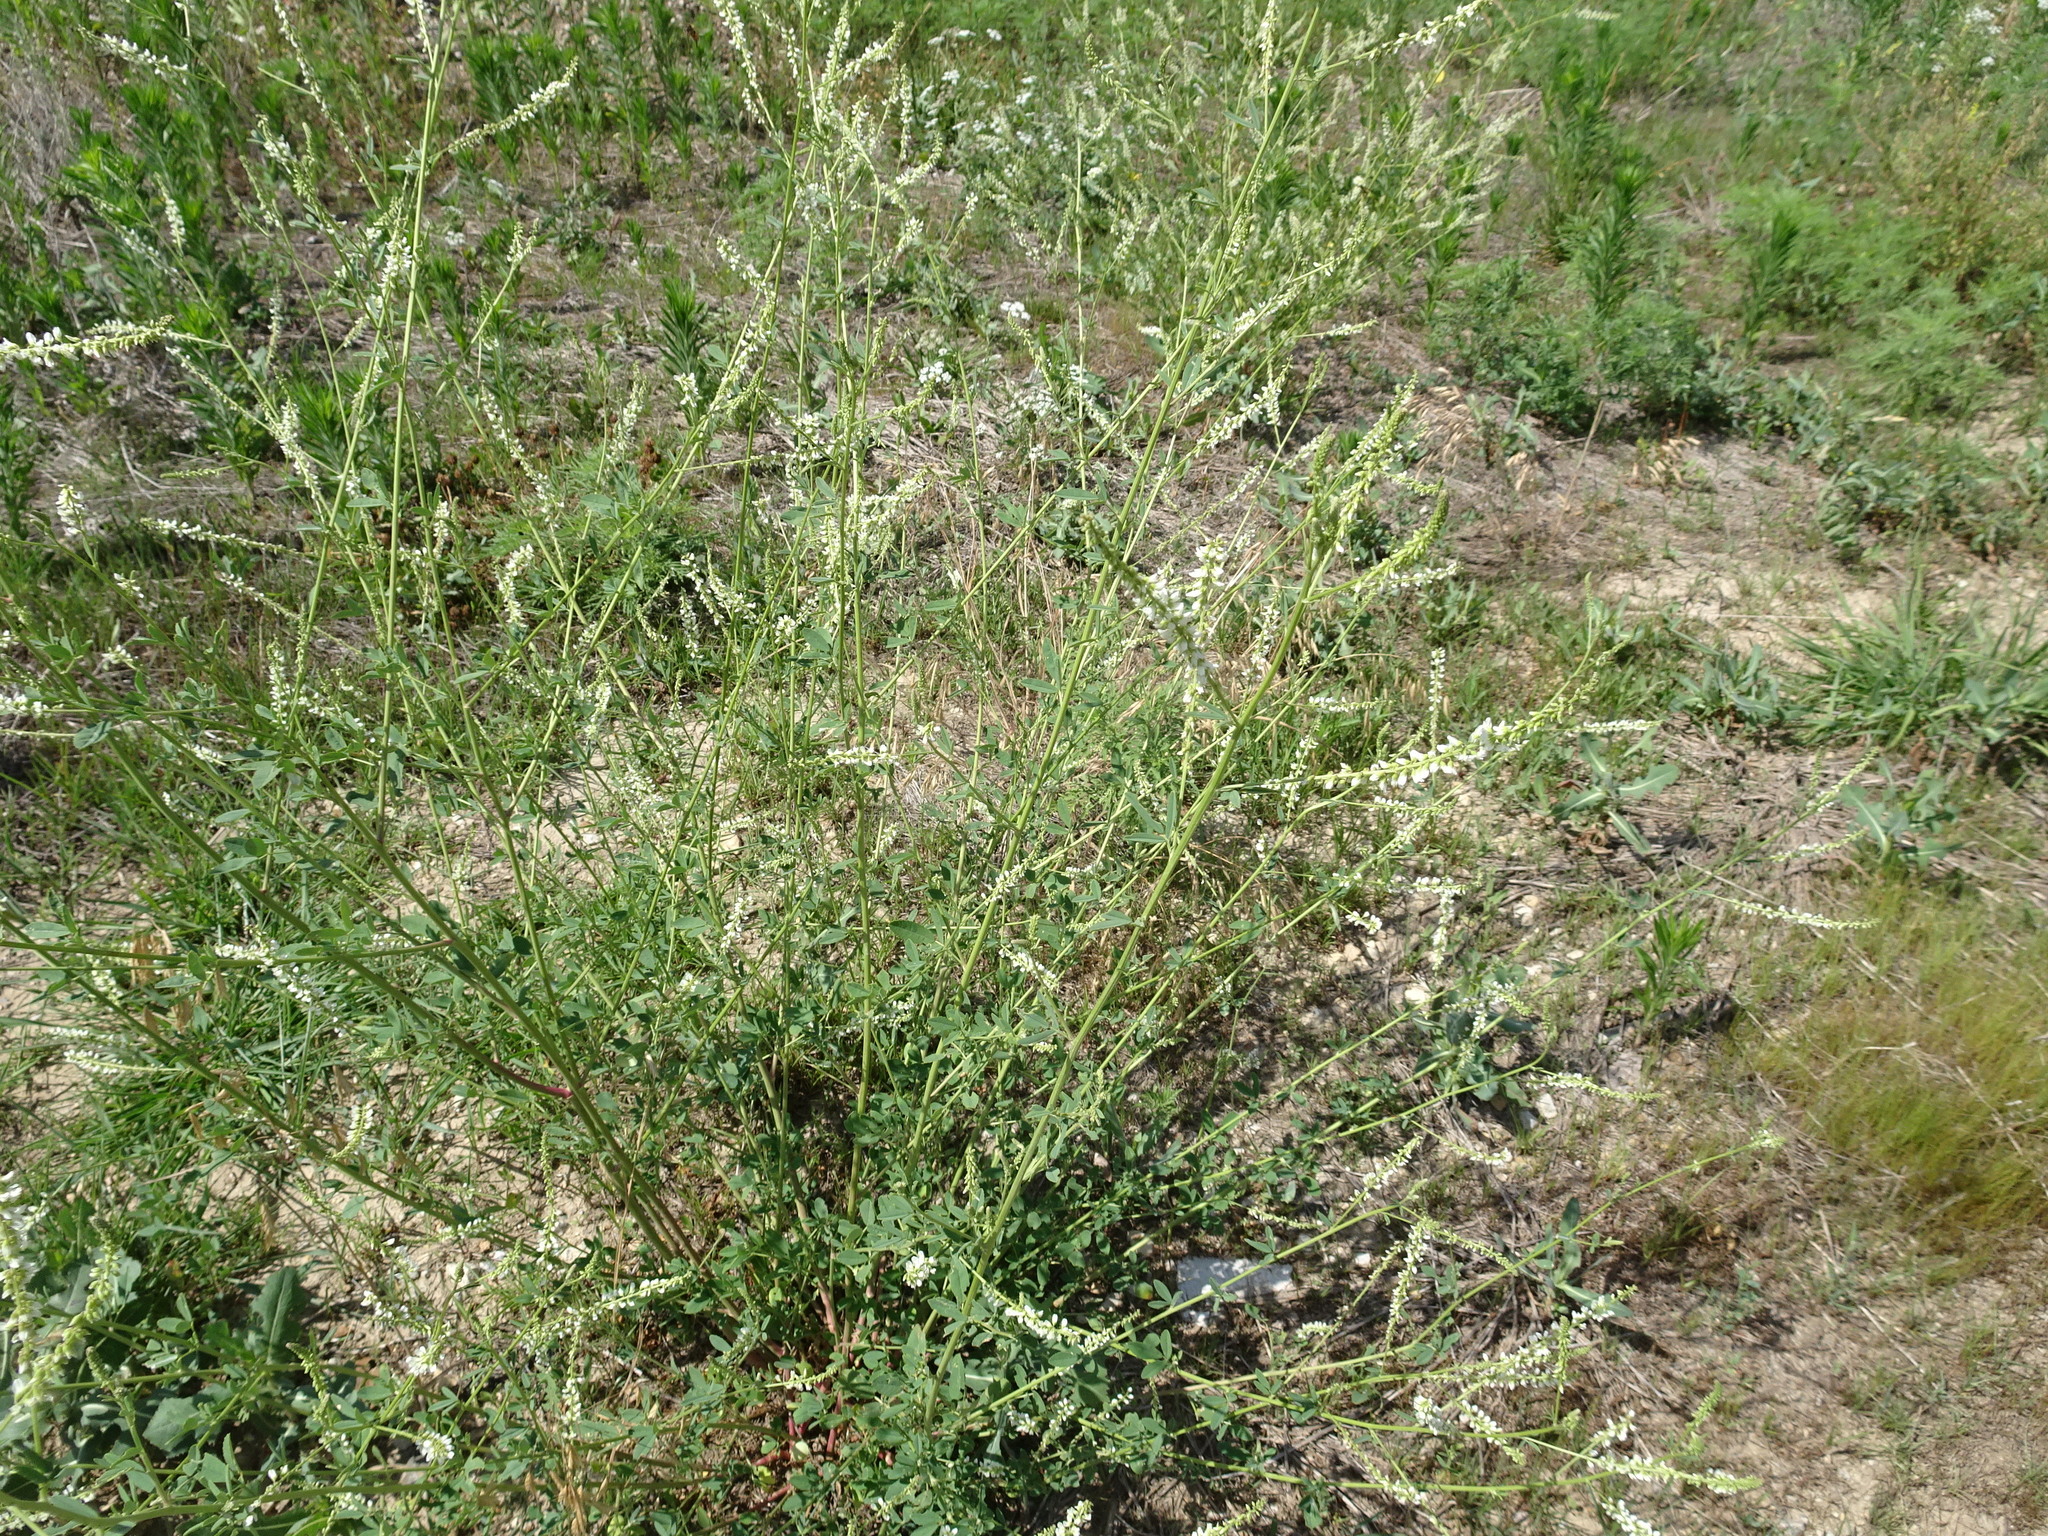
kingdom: Plantae
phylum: Tracheophyta
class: Magnoliopsida
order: Fabales
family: Fabaceae
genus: Melilotus
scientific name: Melilotus albus
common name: White melilot
